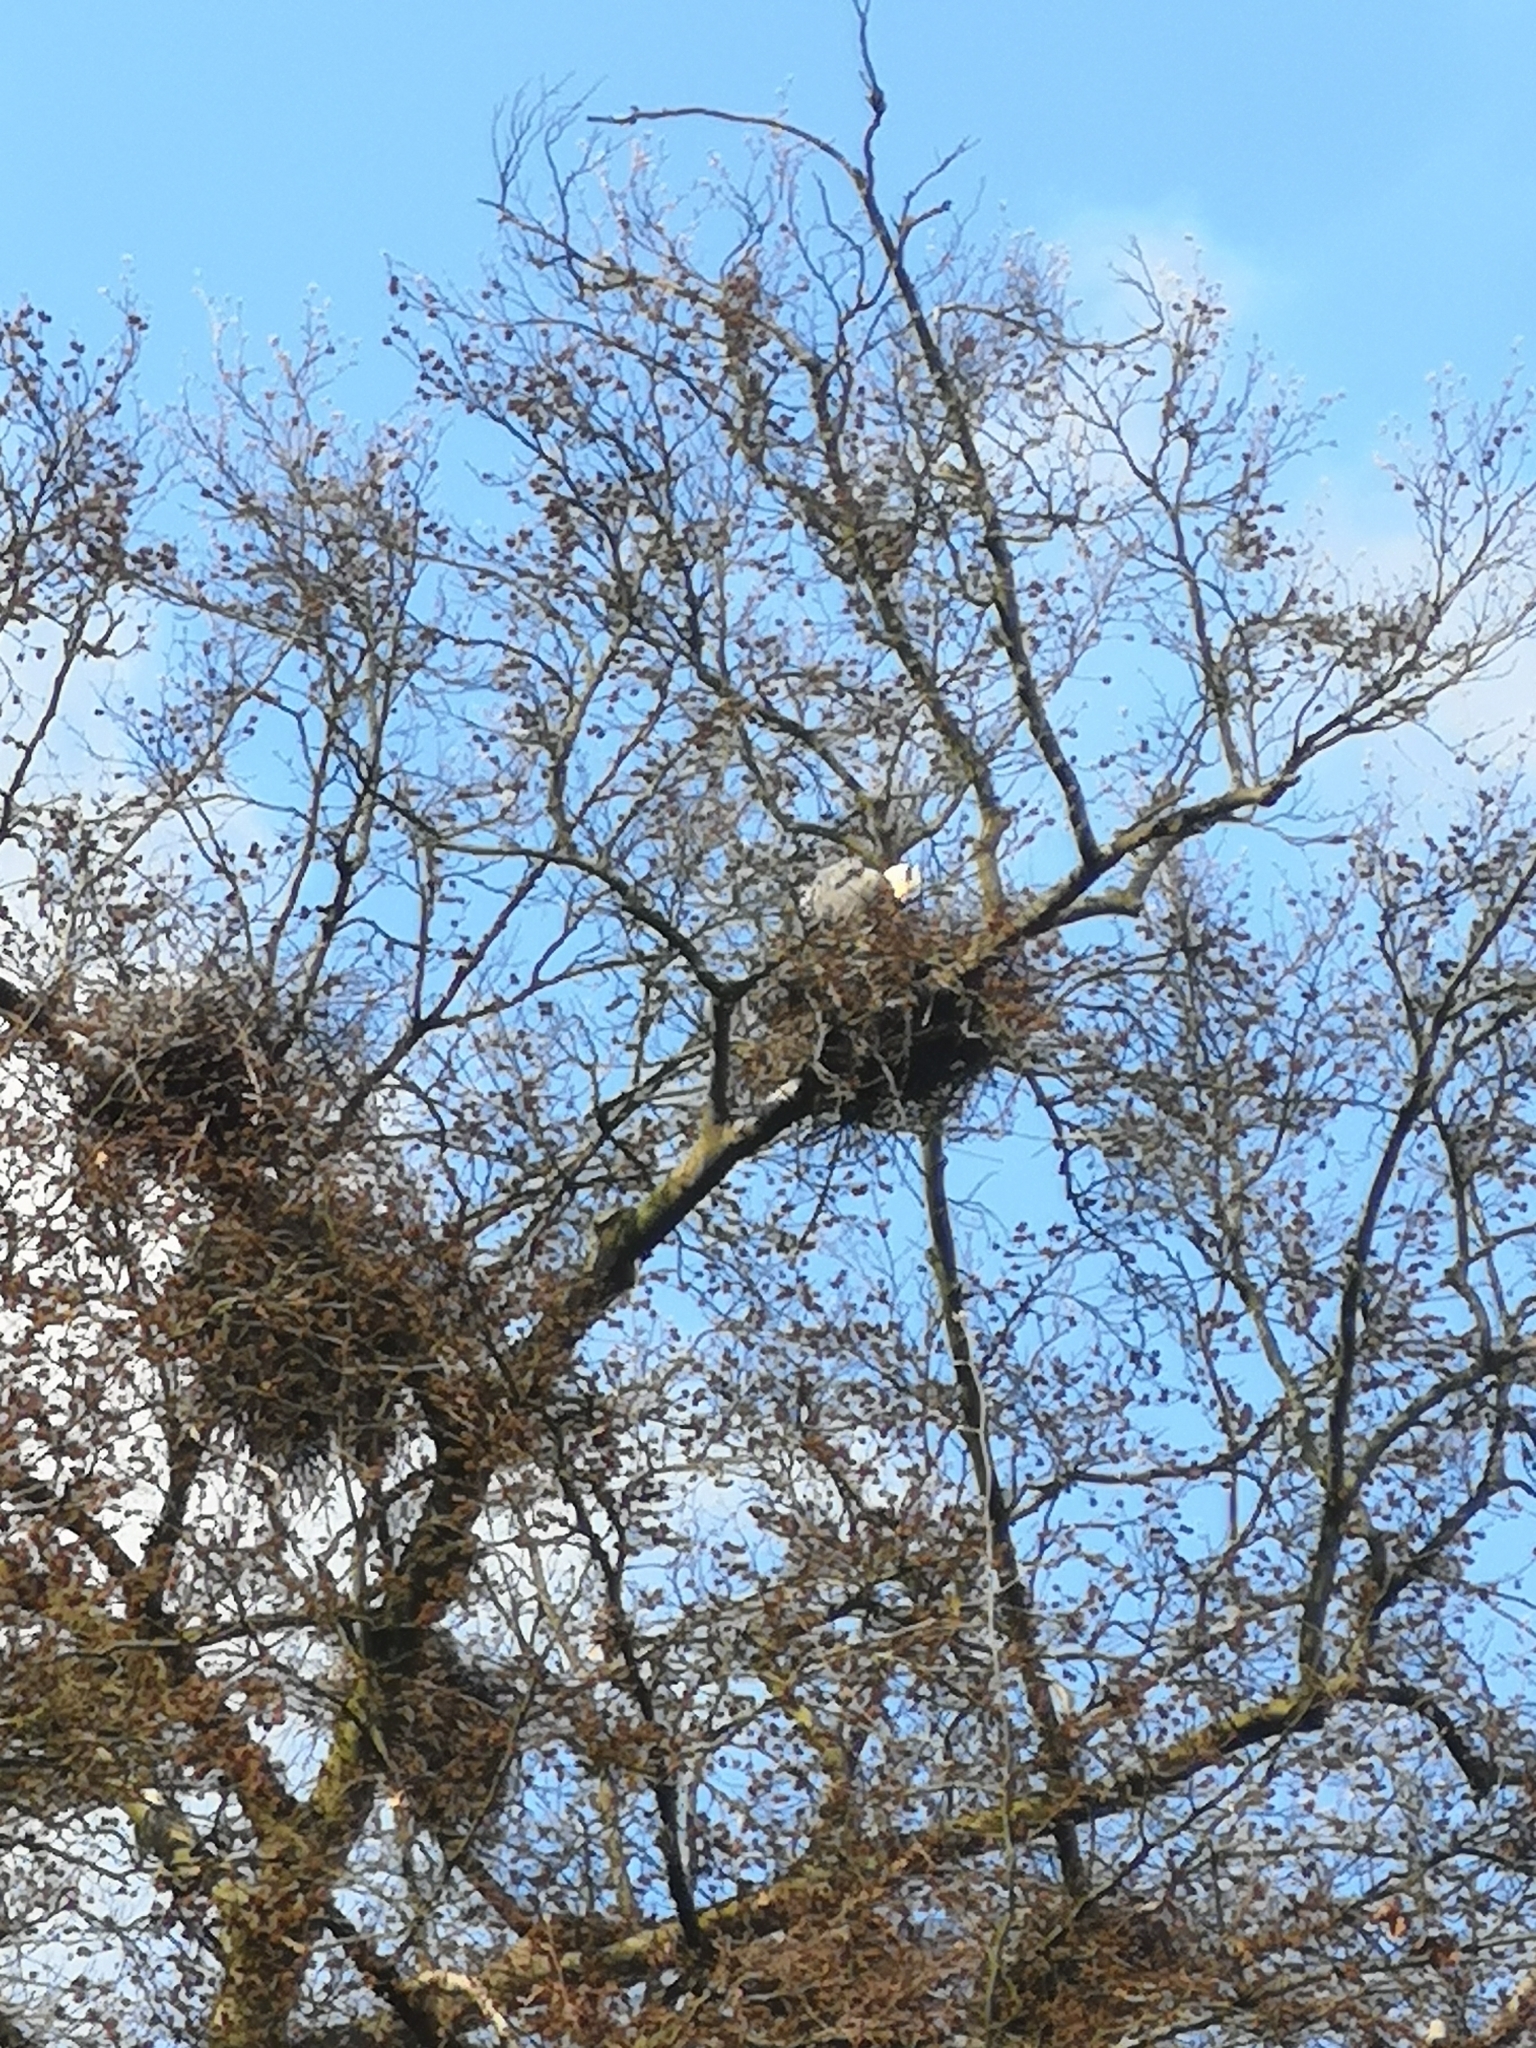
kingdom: Animalia
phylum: Chordata
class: Aves
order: Pelecaniformes
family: Ardeidae
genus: Ardea
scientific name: Ardea cinerea
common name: Grey heron
